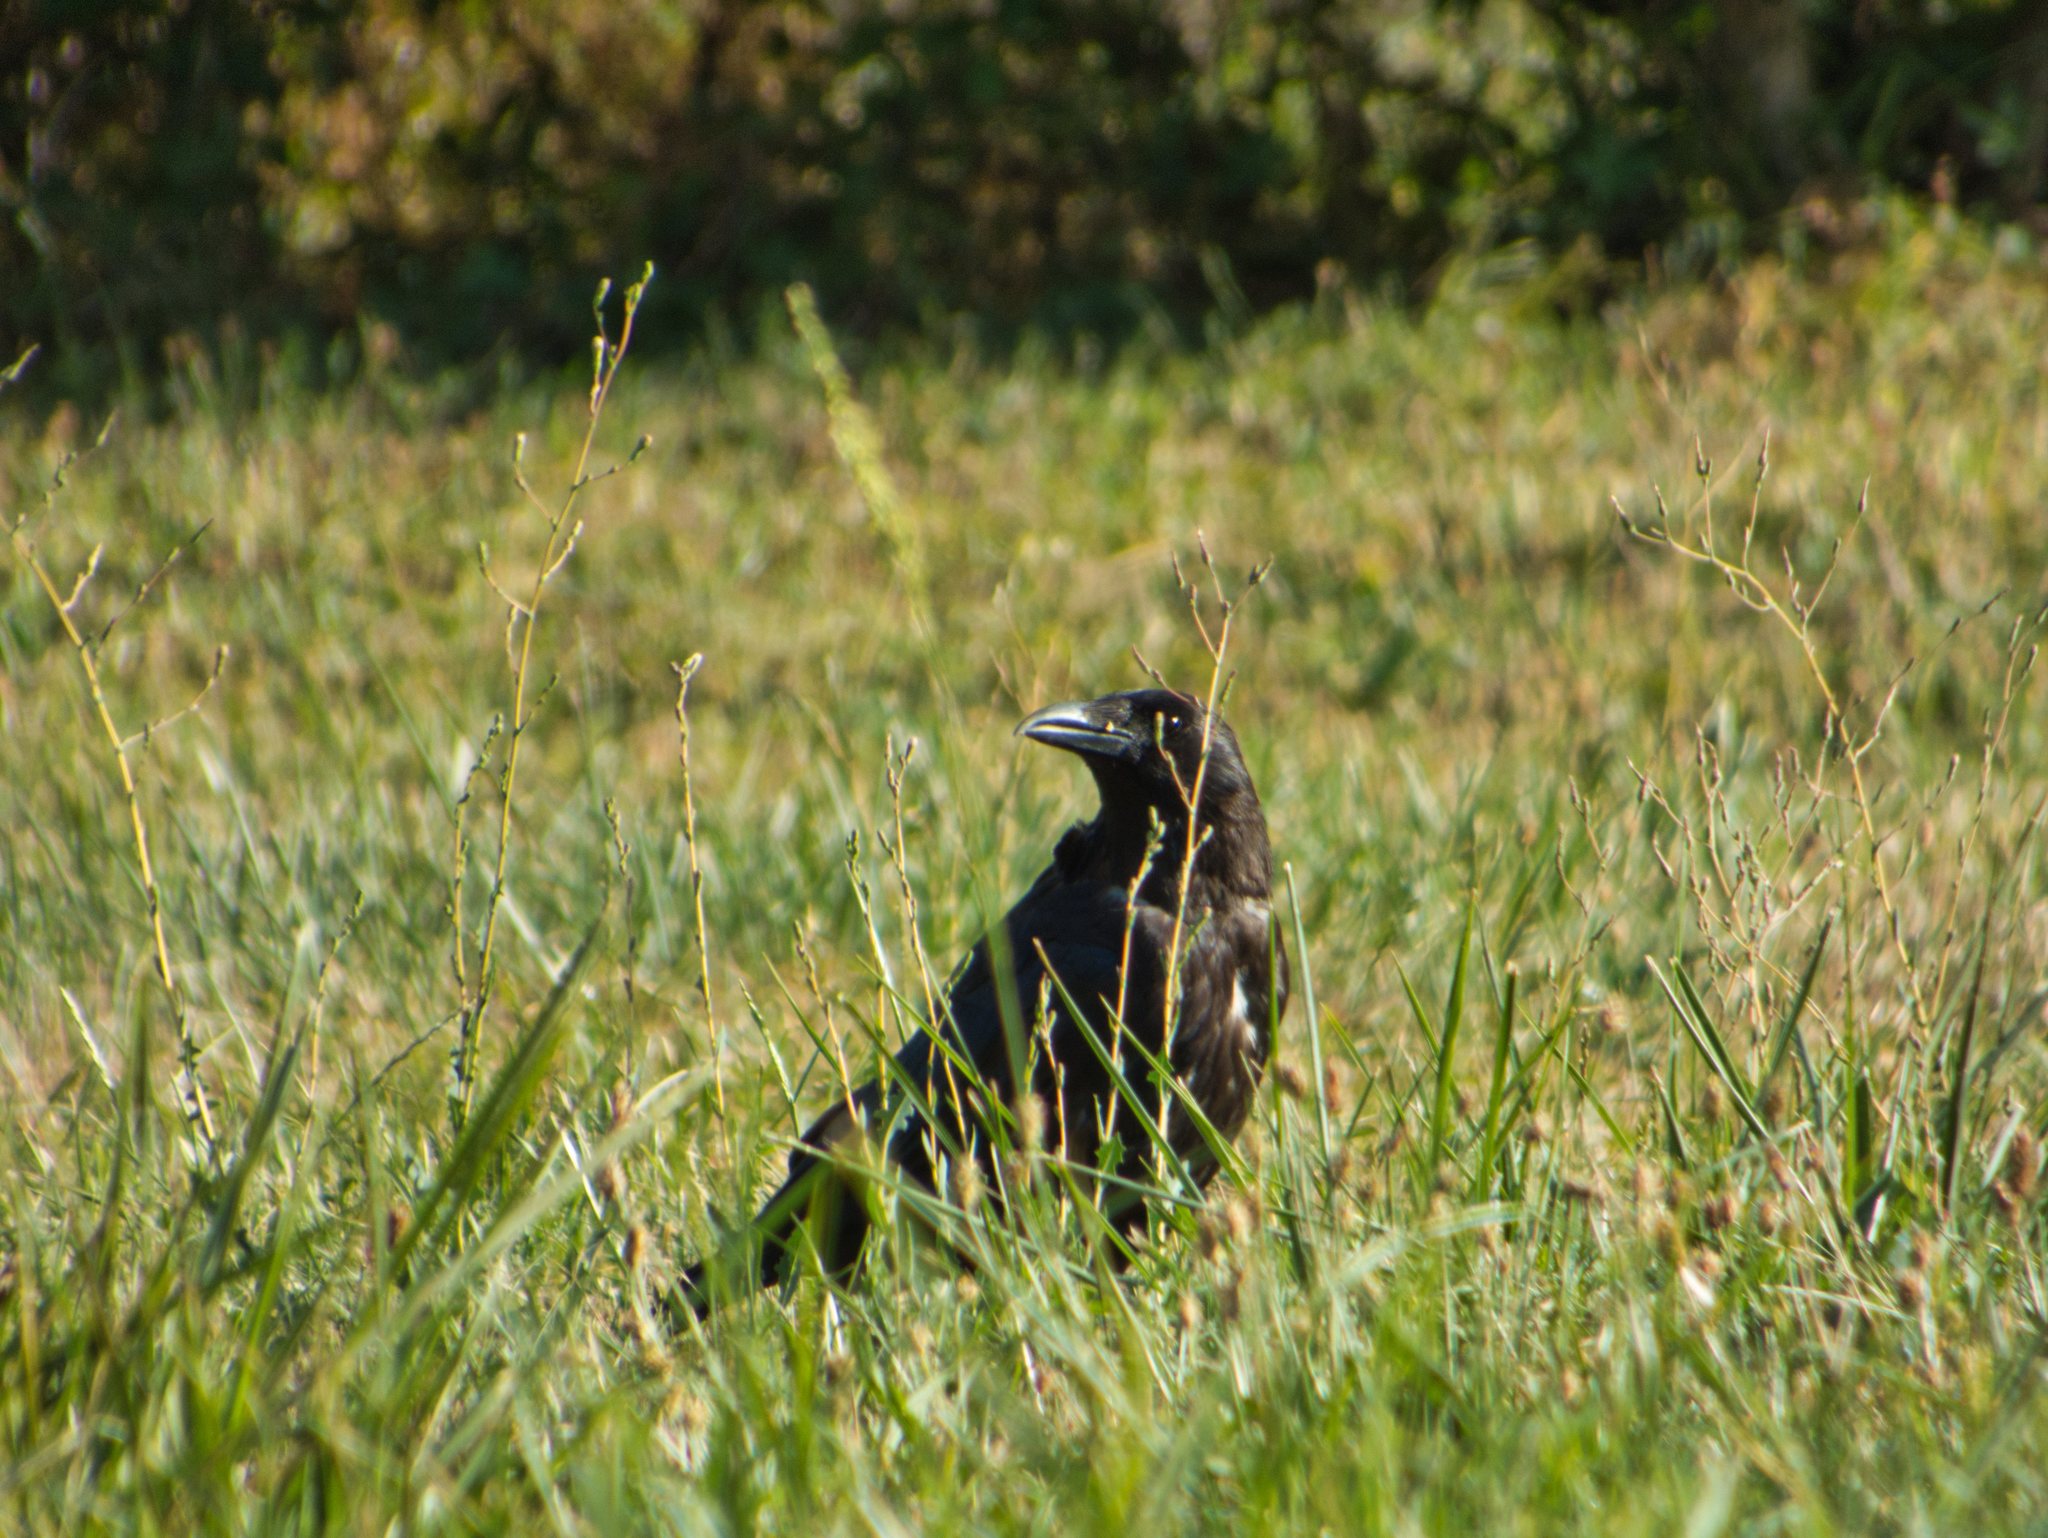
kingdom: Animalia
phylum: Chordata
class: Aves
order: Passeriformes
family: Corvidae
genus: Corvus
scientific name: Corvus corone
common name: Carrion crow
